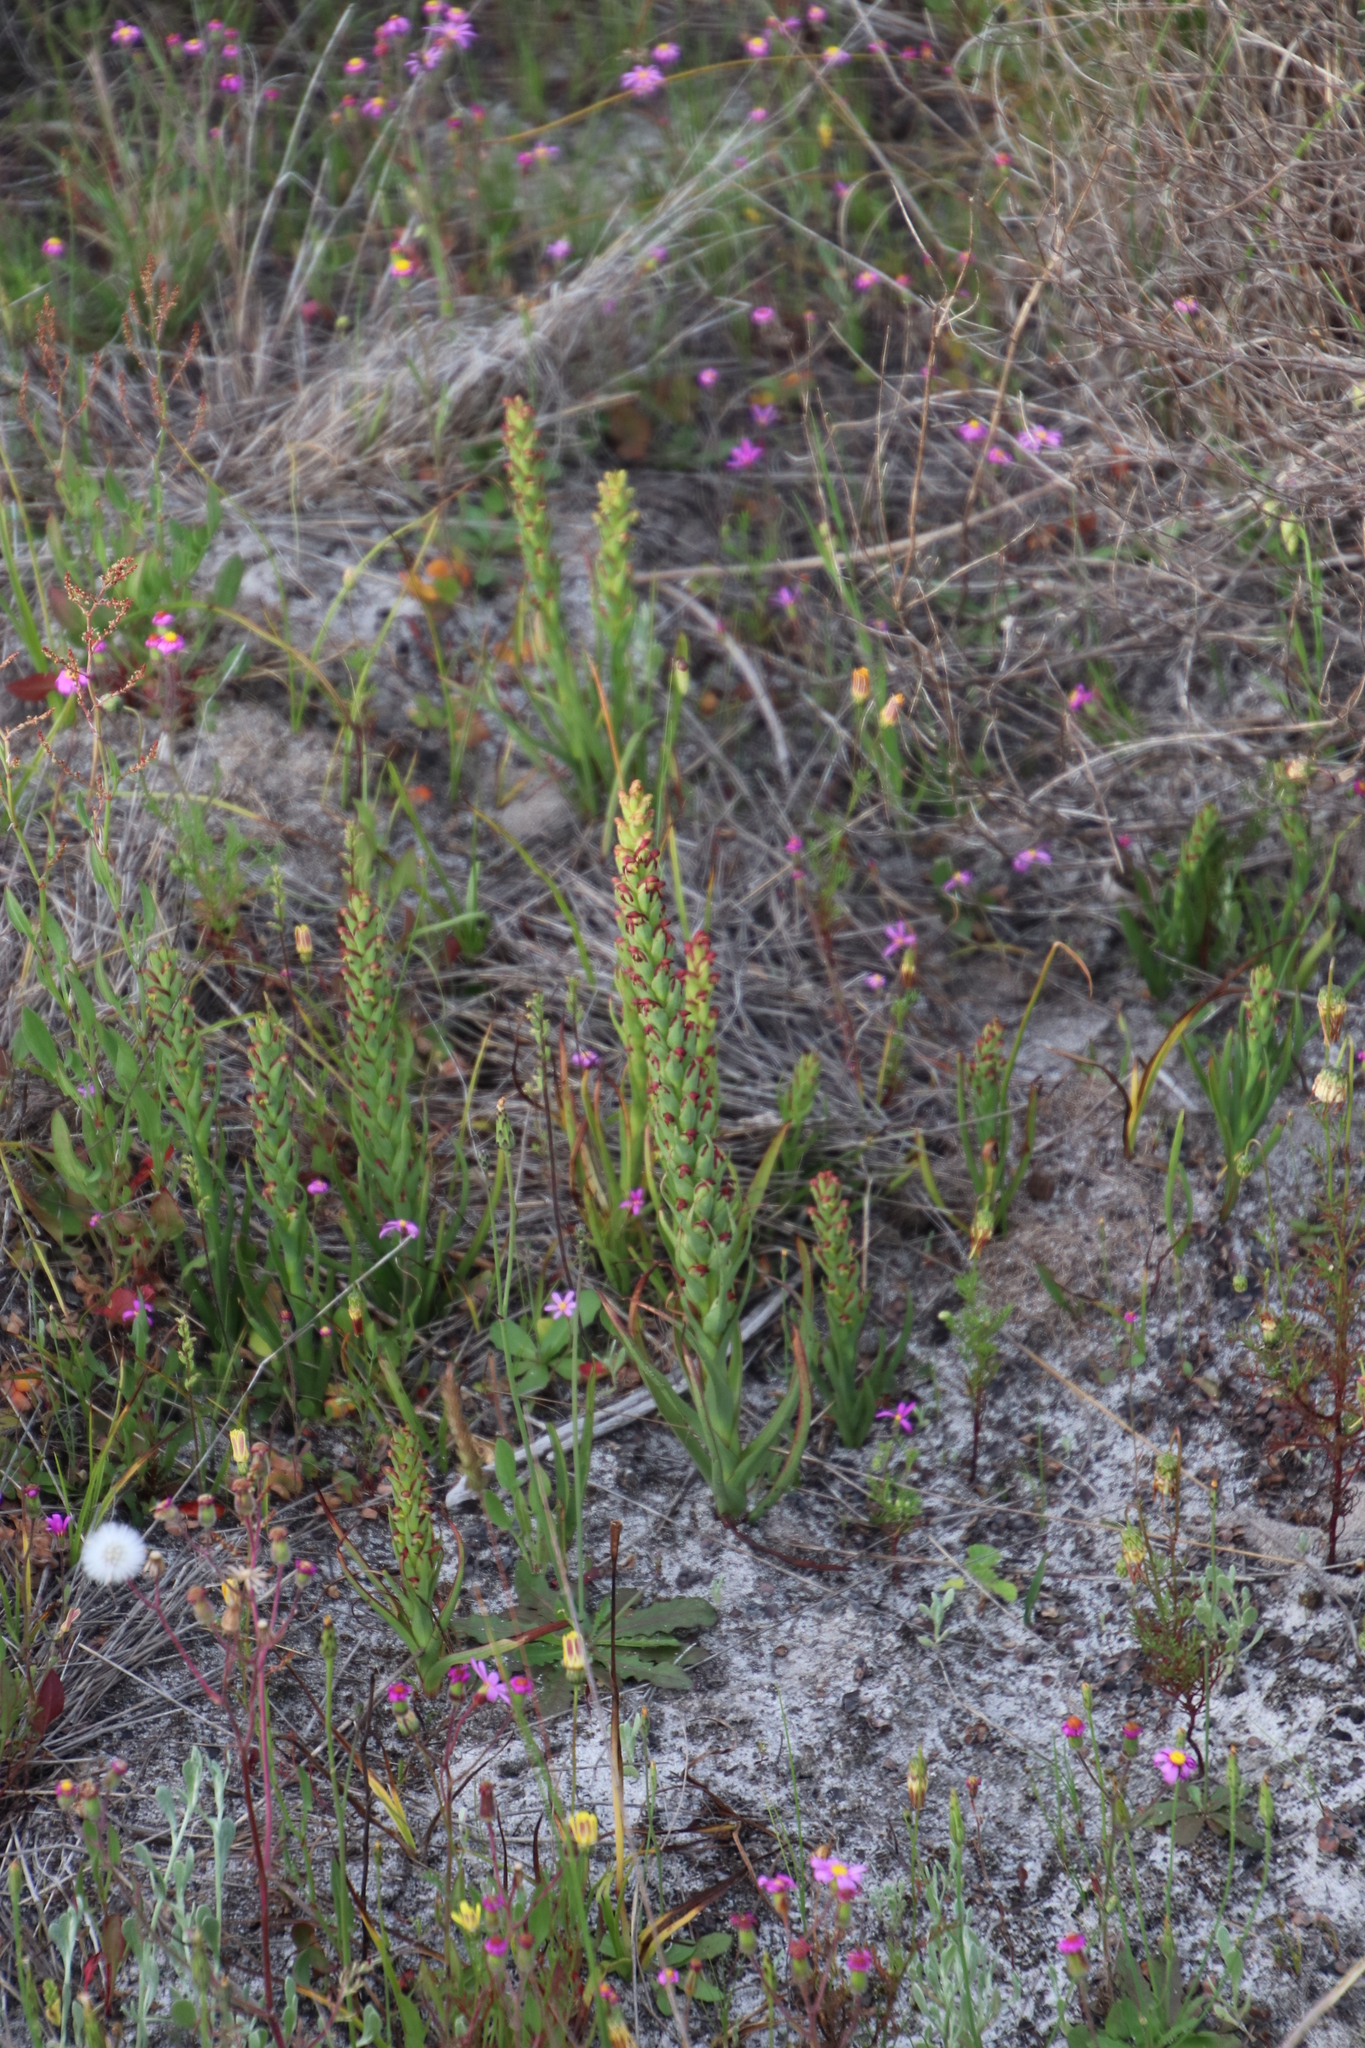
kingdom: Plantae
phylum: Tracheophyta
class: Liliopsida
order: Asparagales
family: Orchidaceae
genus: Disa
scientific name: Disa bracteata
